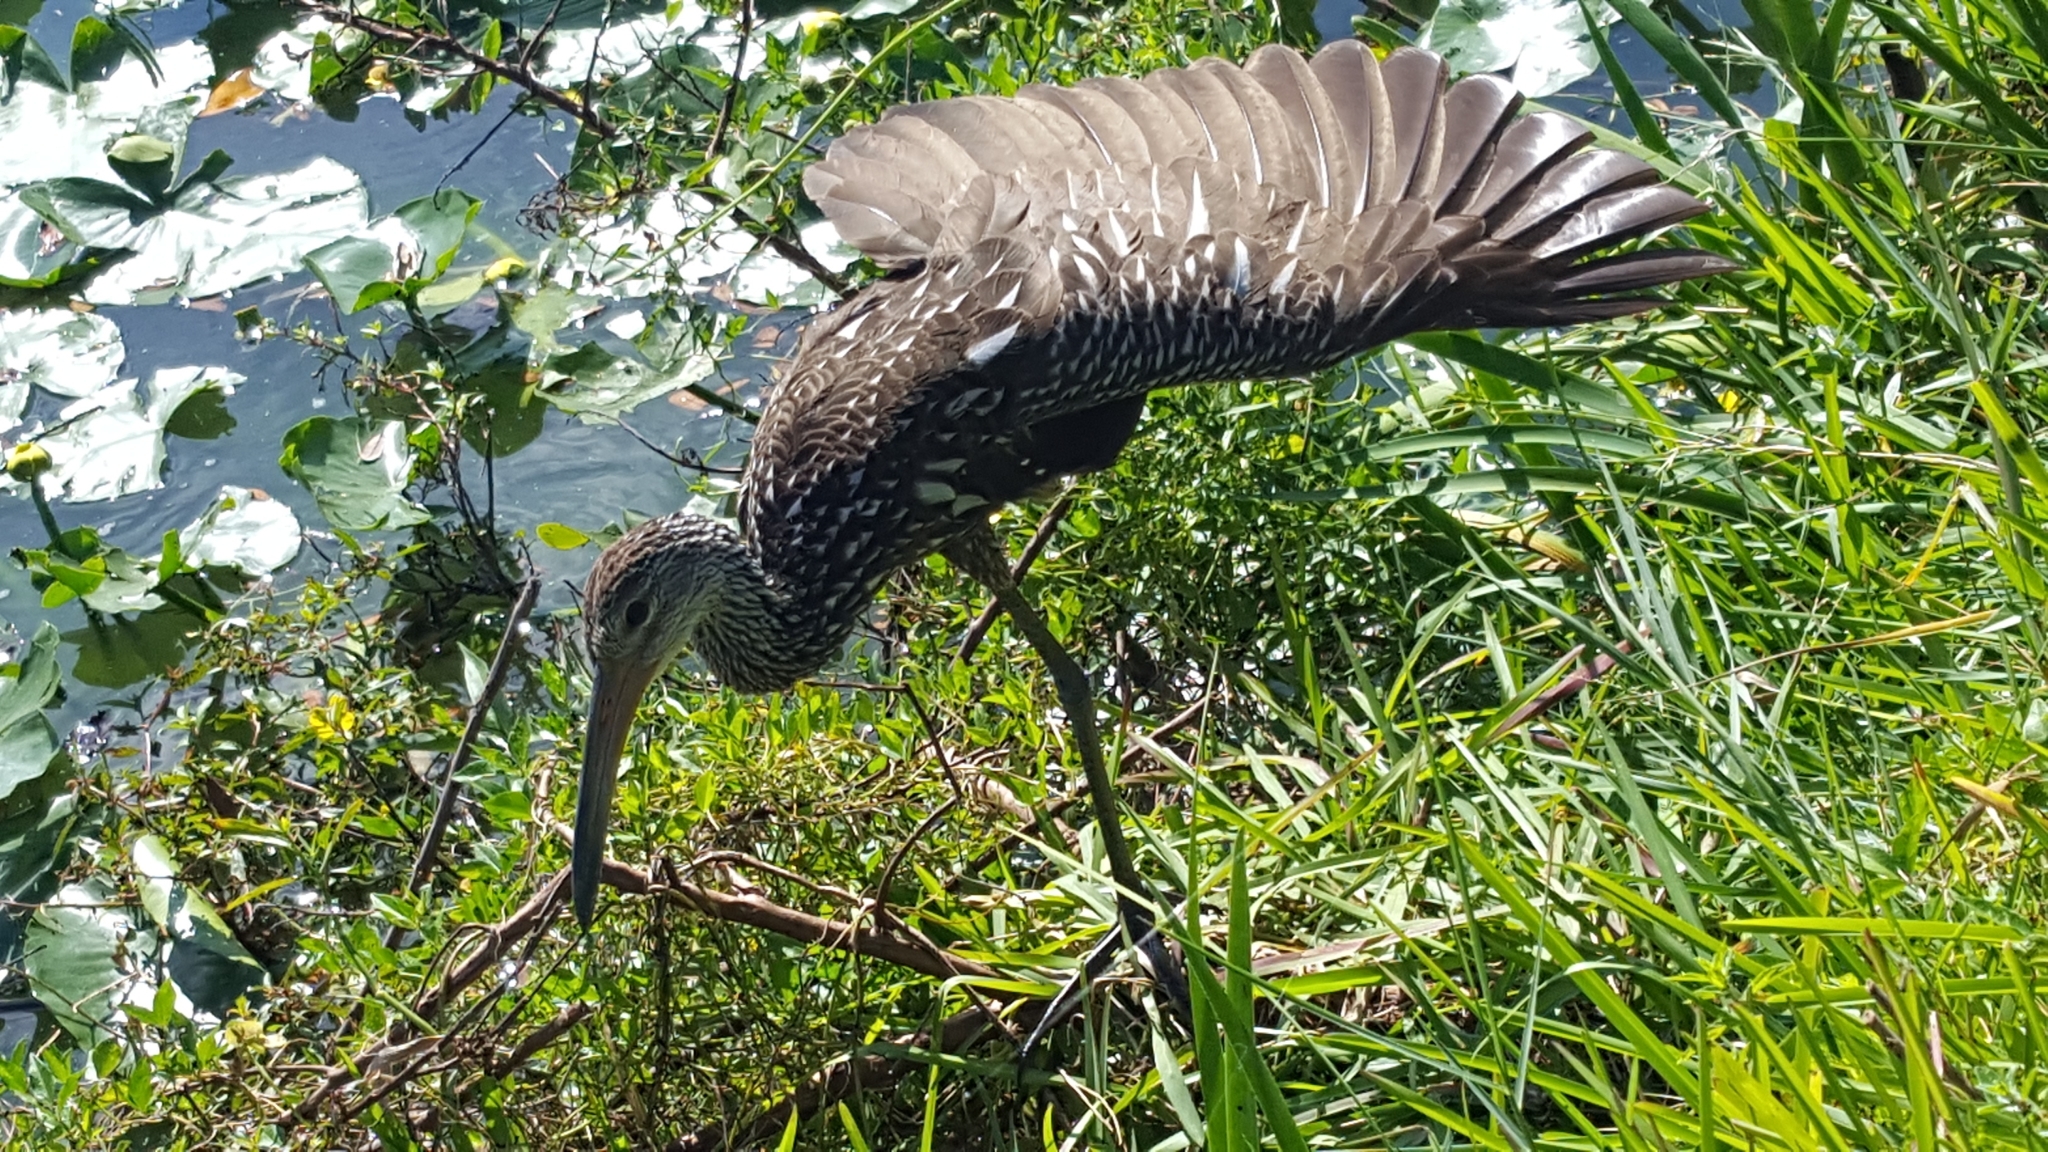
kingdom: Animalia
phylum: Chordata
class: Aves
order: Gruiformes
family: Aramidae
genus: Aramus
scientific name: Aramus guarauna
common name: Limpkin
